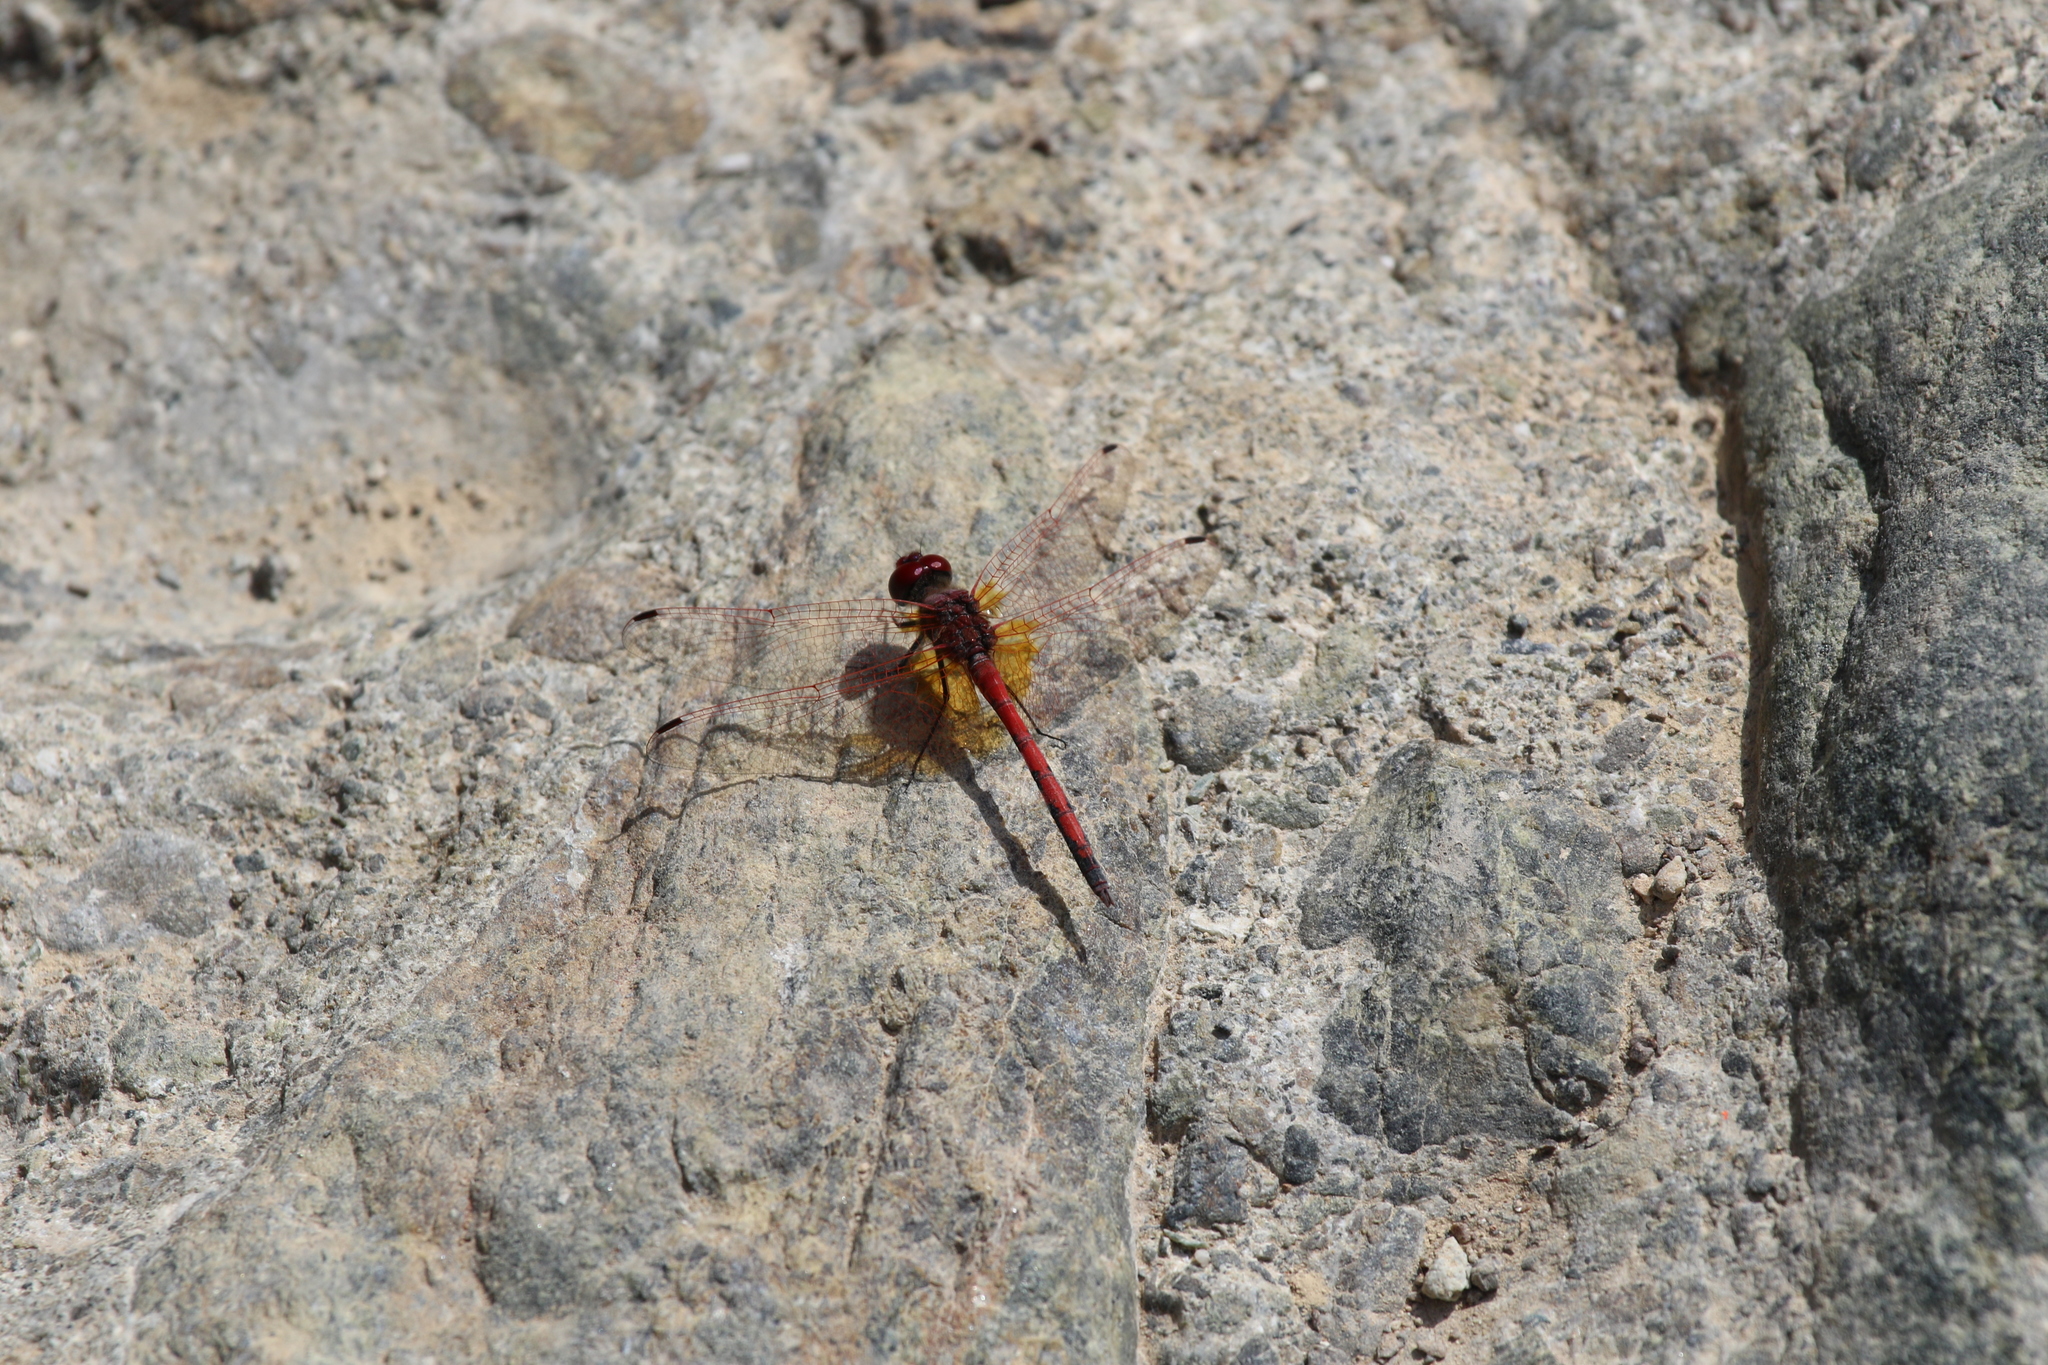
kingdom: Animalia
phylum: Arthropoda
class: Insecta
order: Odonata
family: Libellulidae
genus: Trithemis
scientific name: Trithemis arteriosa
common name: Red-veined dropwing
